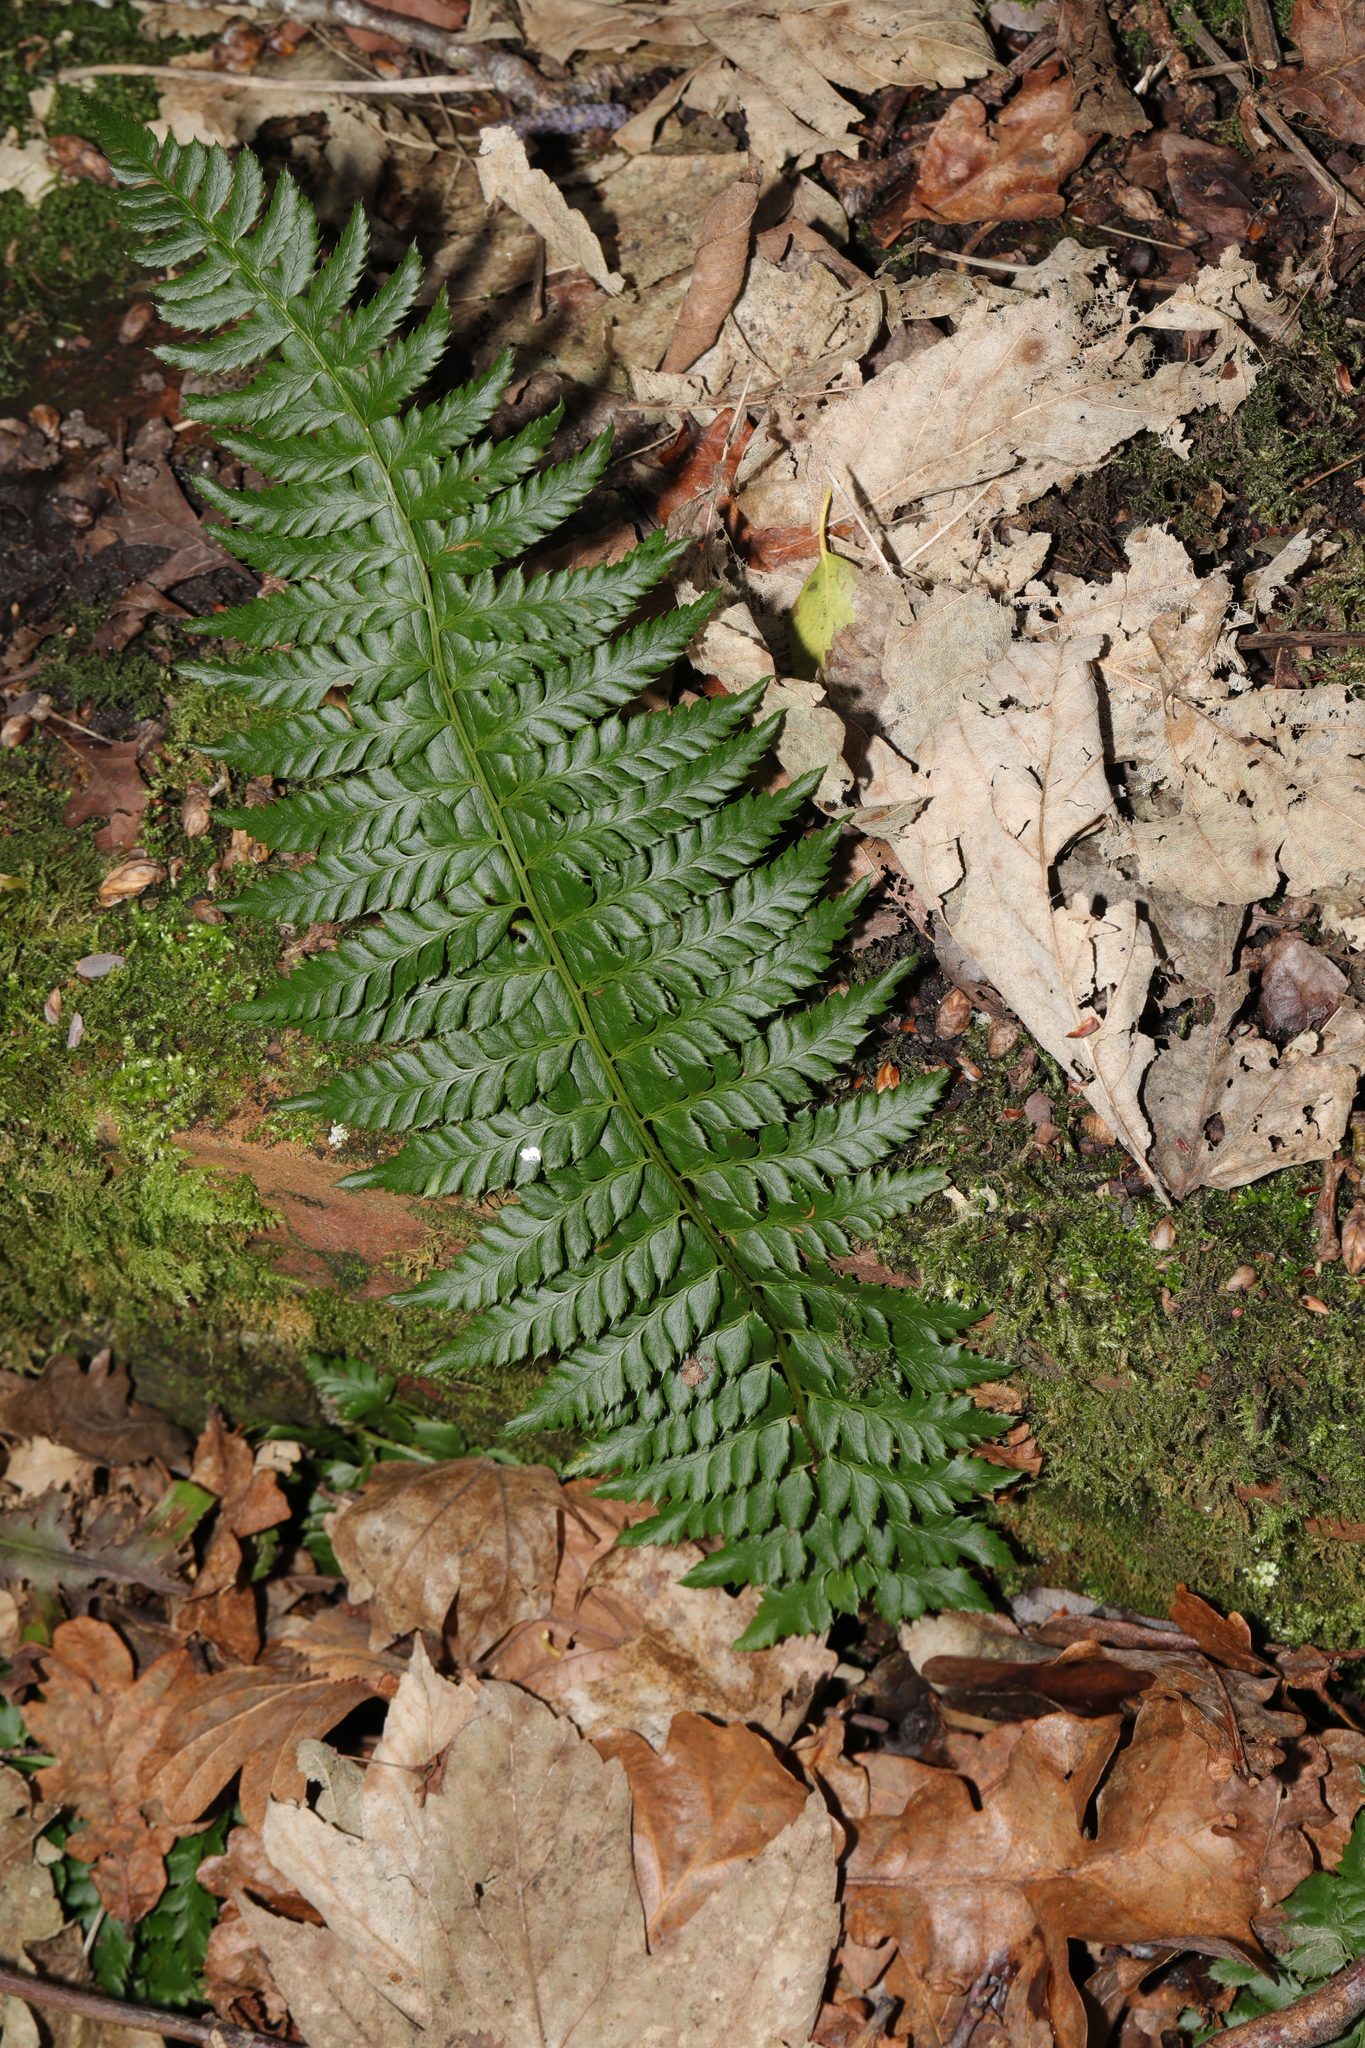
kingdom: Plantae
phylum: Tracheophyta
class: Polypodiopsida
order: Polypodiales
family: Dryopteridaceae
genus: Polystichum
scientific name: Polystichum aculeatum
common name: Hard shield-fern
